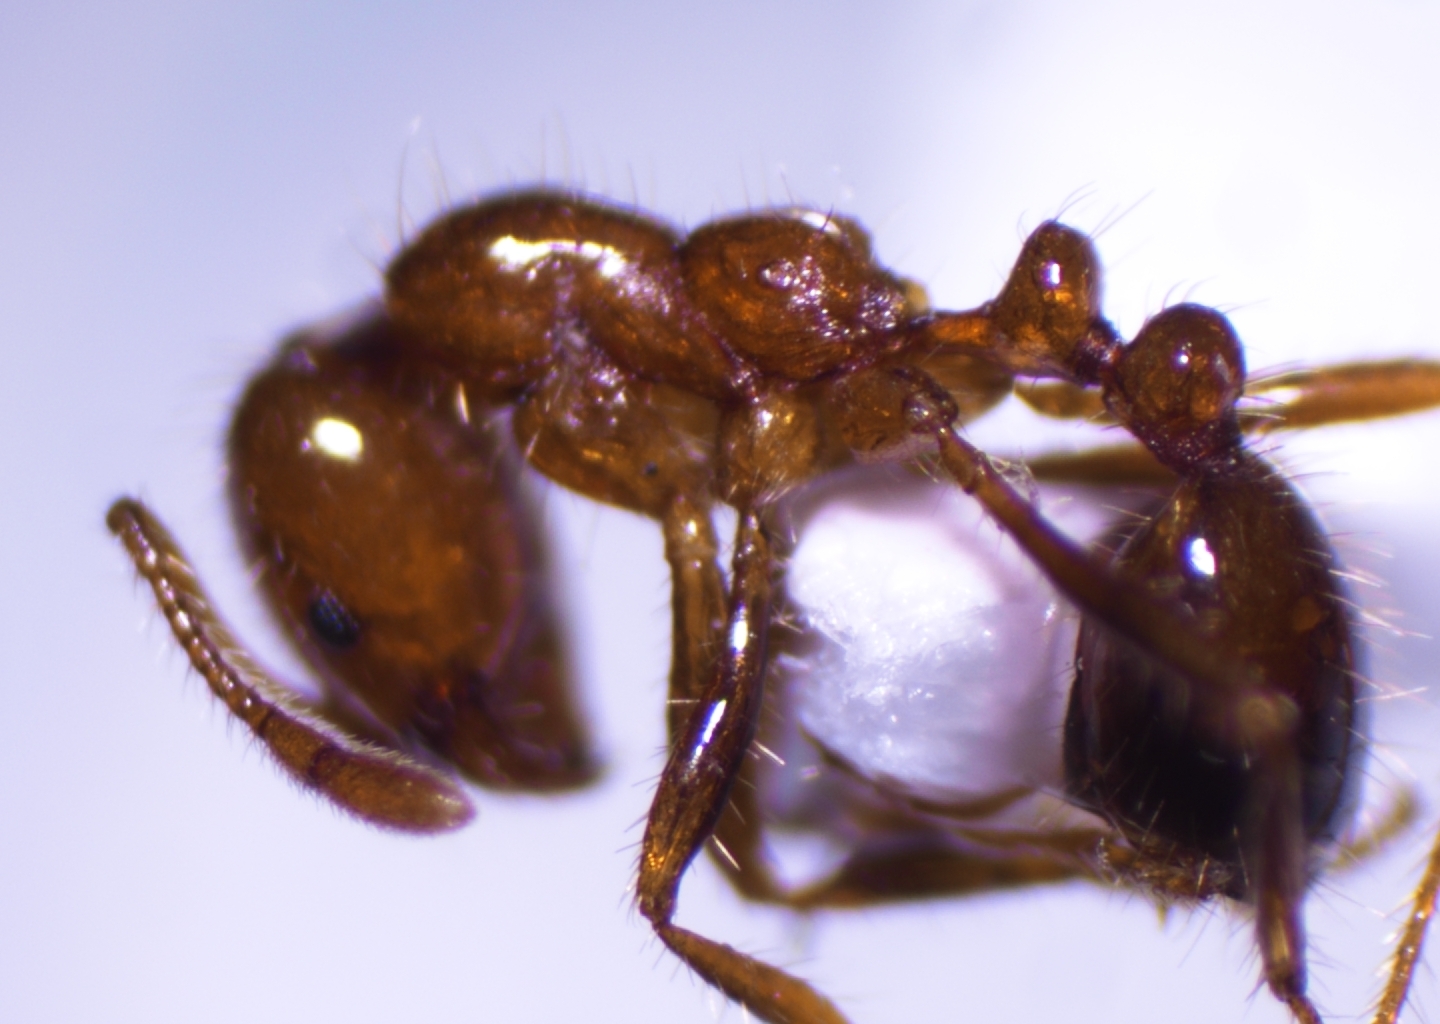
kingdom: Animalia
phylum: Arthropoda
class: Insecta
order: Hymenoptera
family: Formicidae
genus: Solenopsis
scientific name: Solenopsis geminata
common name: Tropical fire ant
